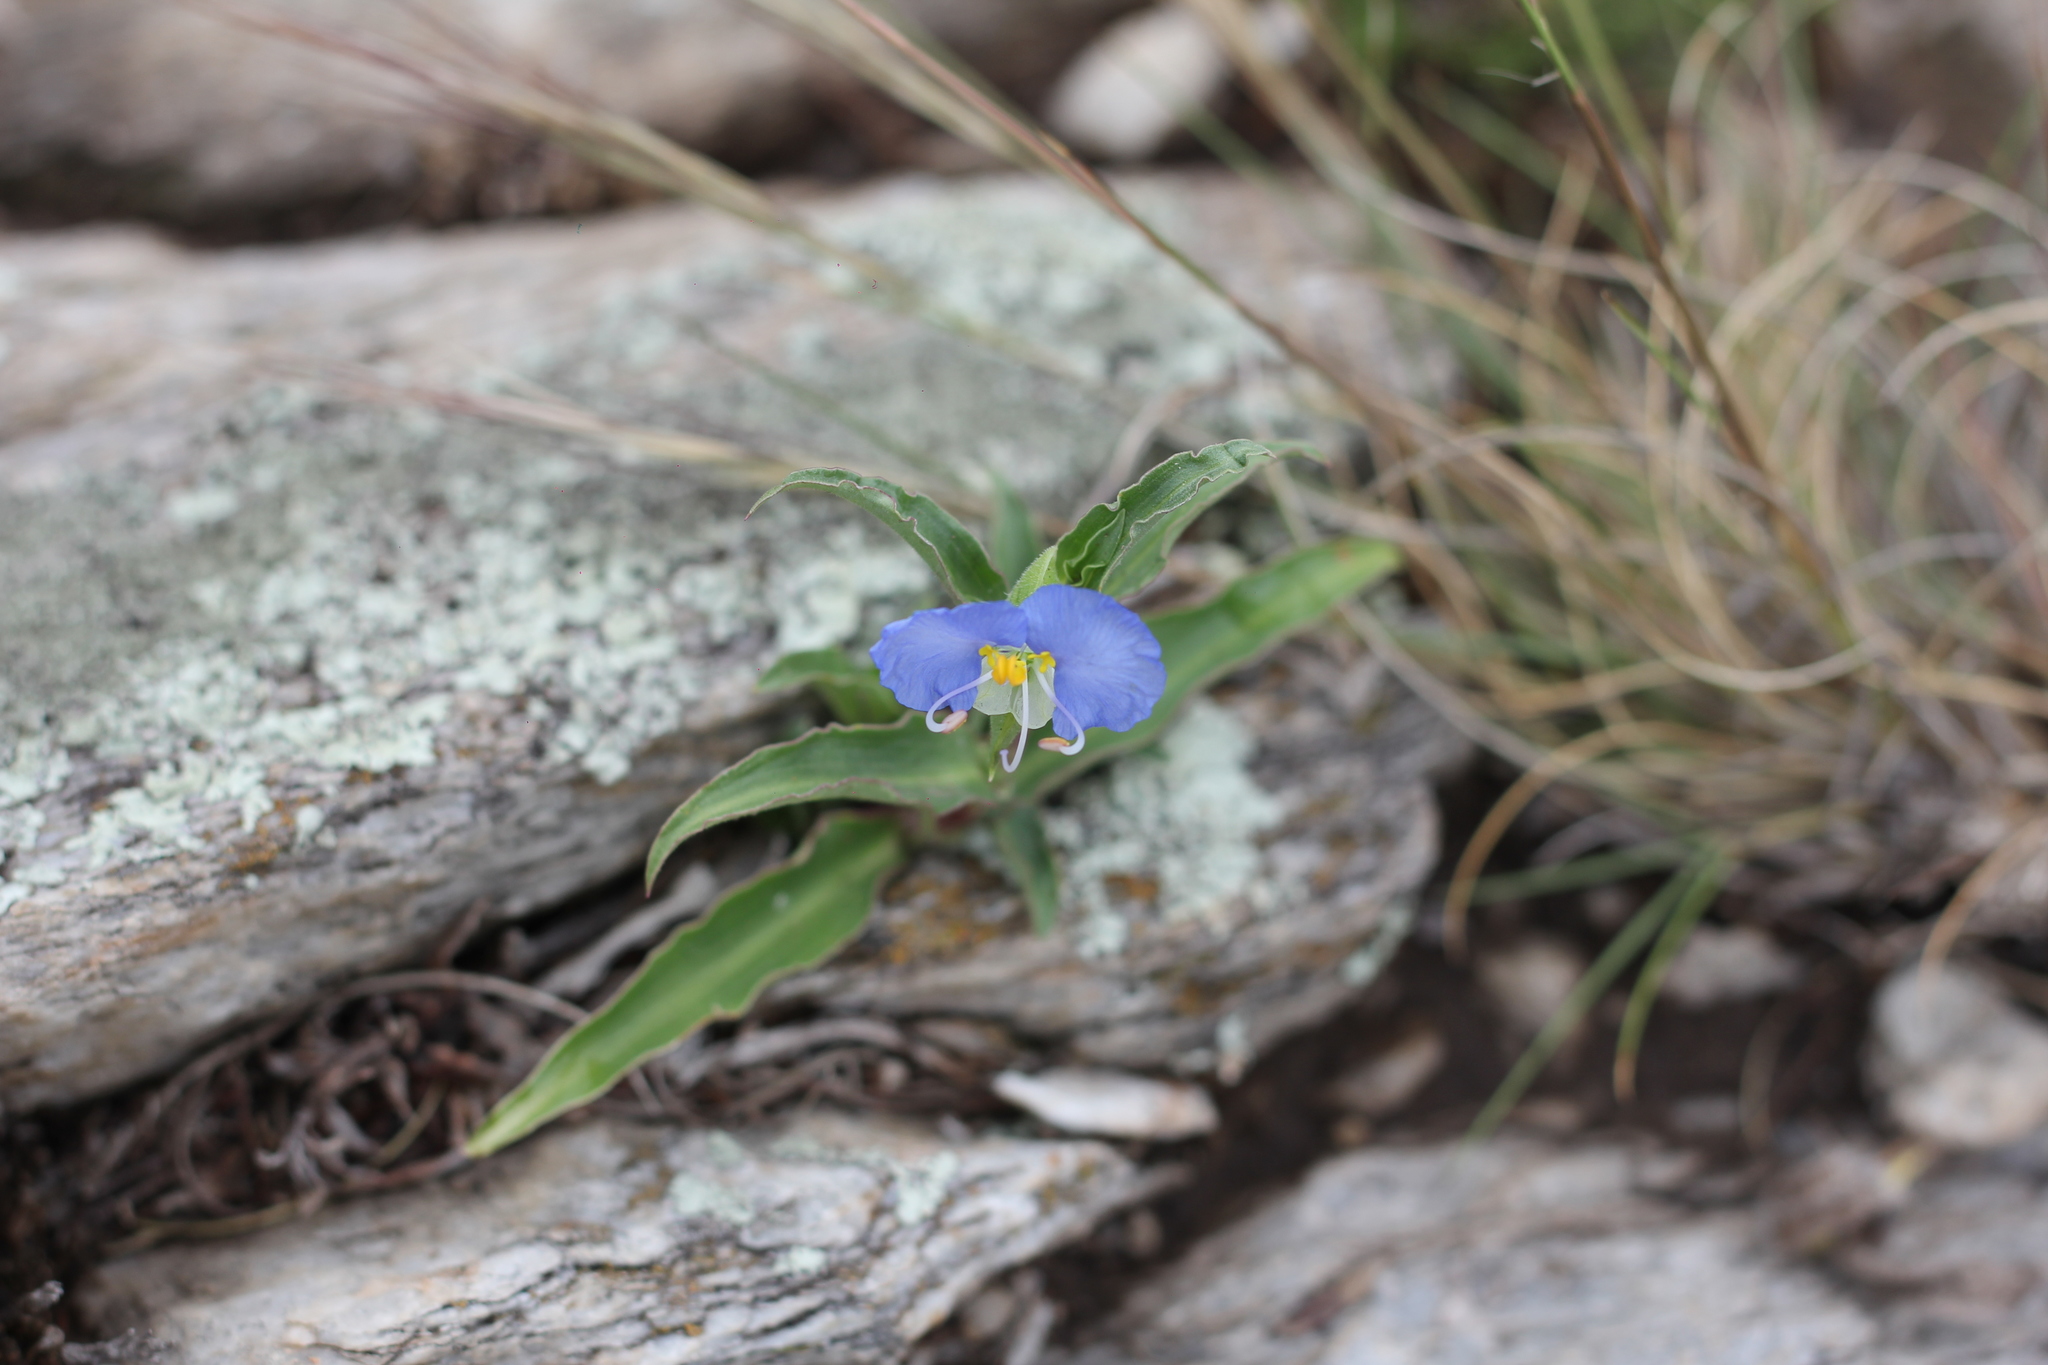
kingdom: Plantae
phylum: Tracheophyta
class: Liliopsida
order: Commelinales
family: Commelinaceae
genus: Commelina
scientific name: Commelina erecta
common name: Blousel blommetjie
